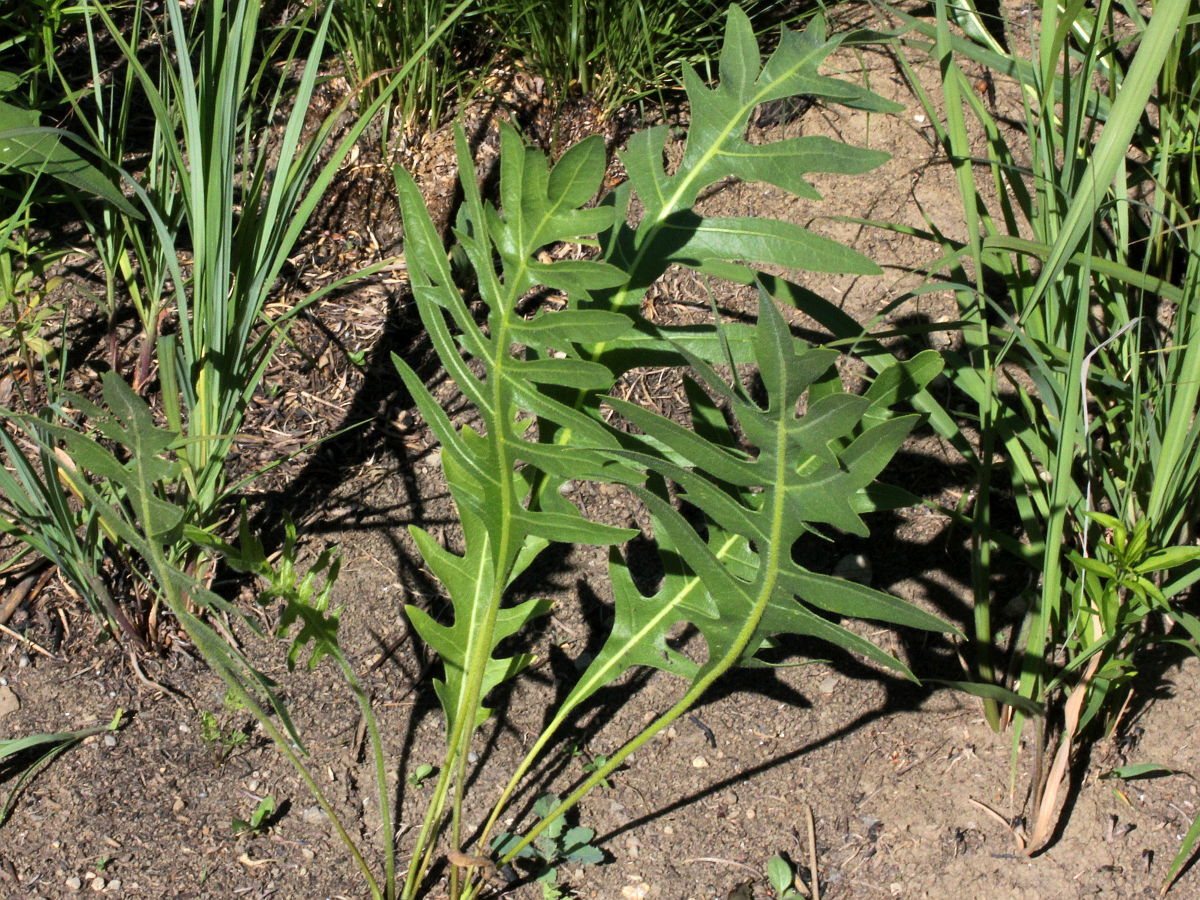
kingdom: Plantae
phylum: Tracheophyta
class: Magnoliopsida
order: Asterales
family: Asteraceae
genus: Silphium
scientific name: Silphium laciniatum
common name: Polarplant
